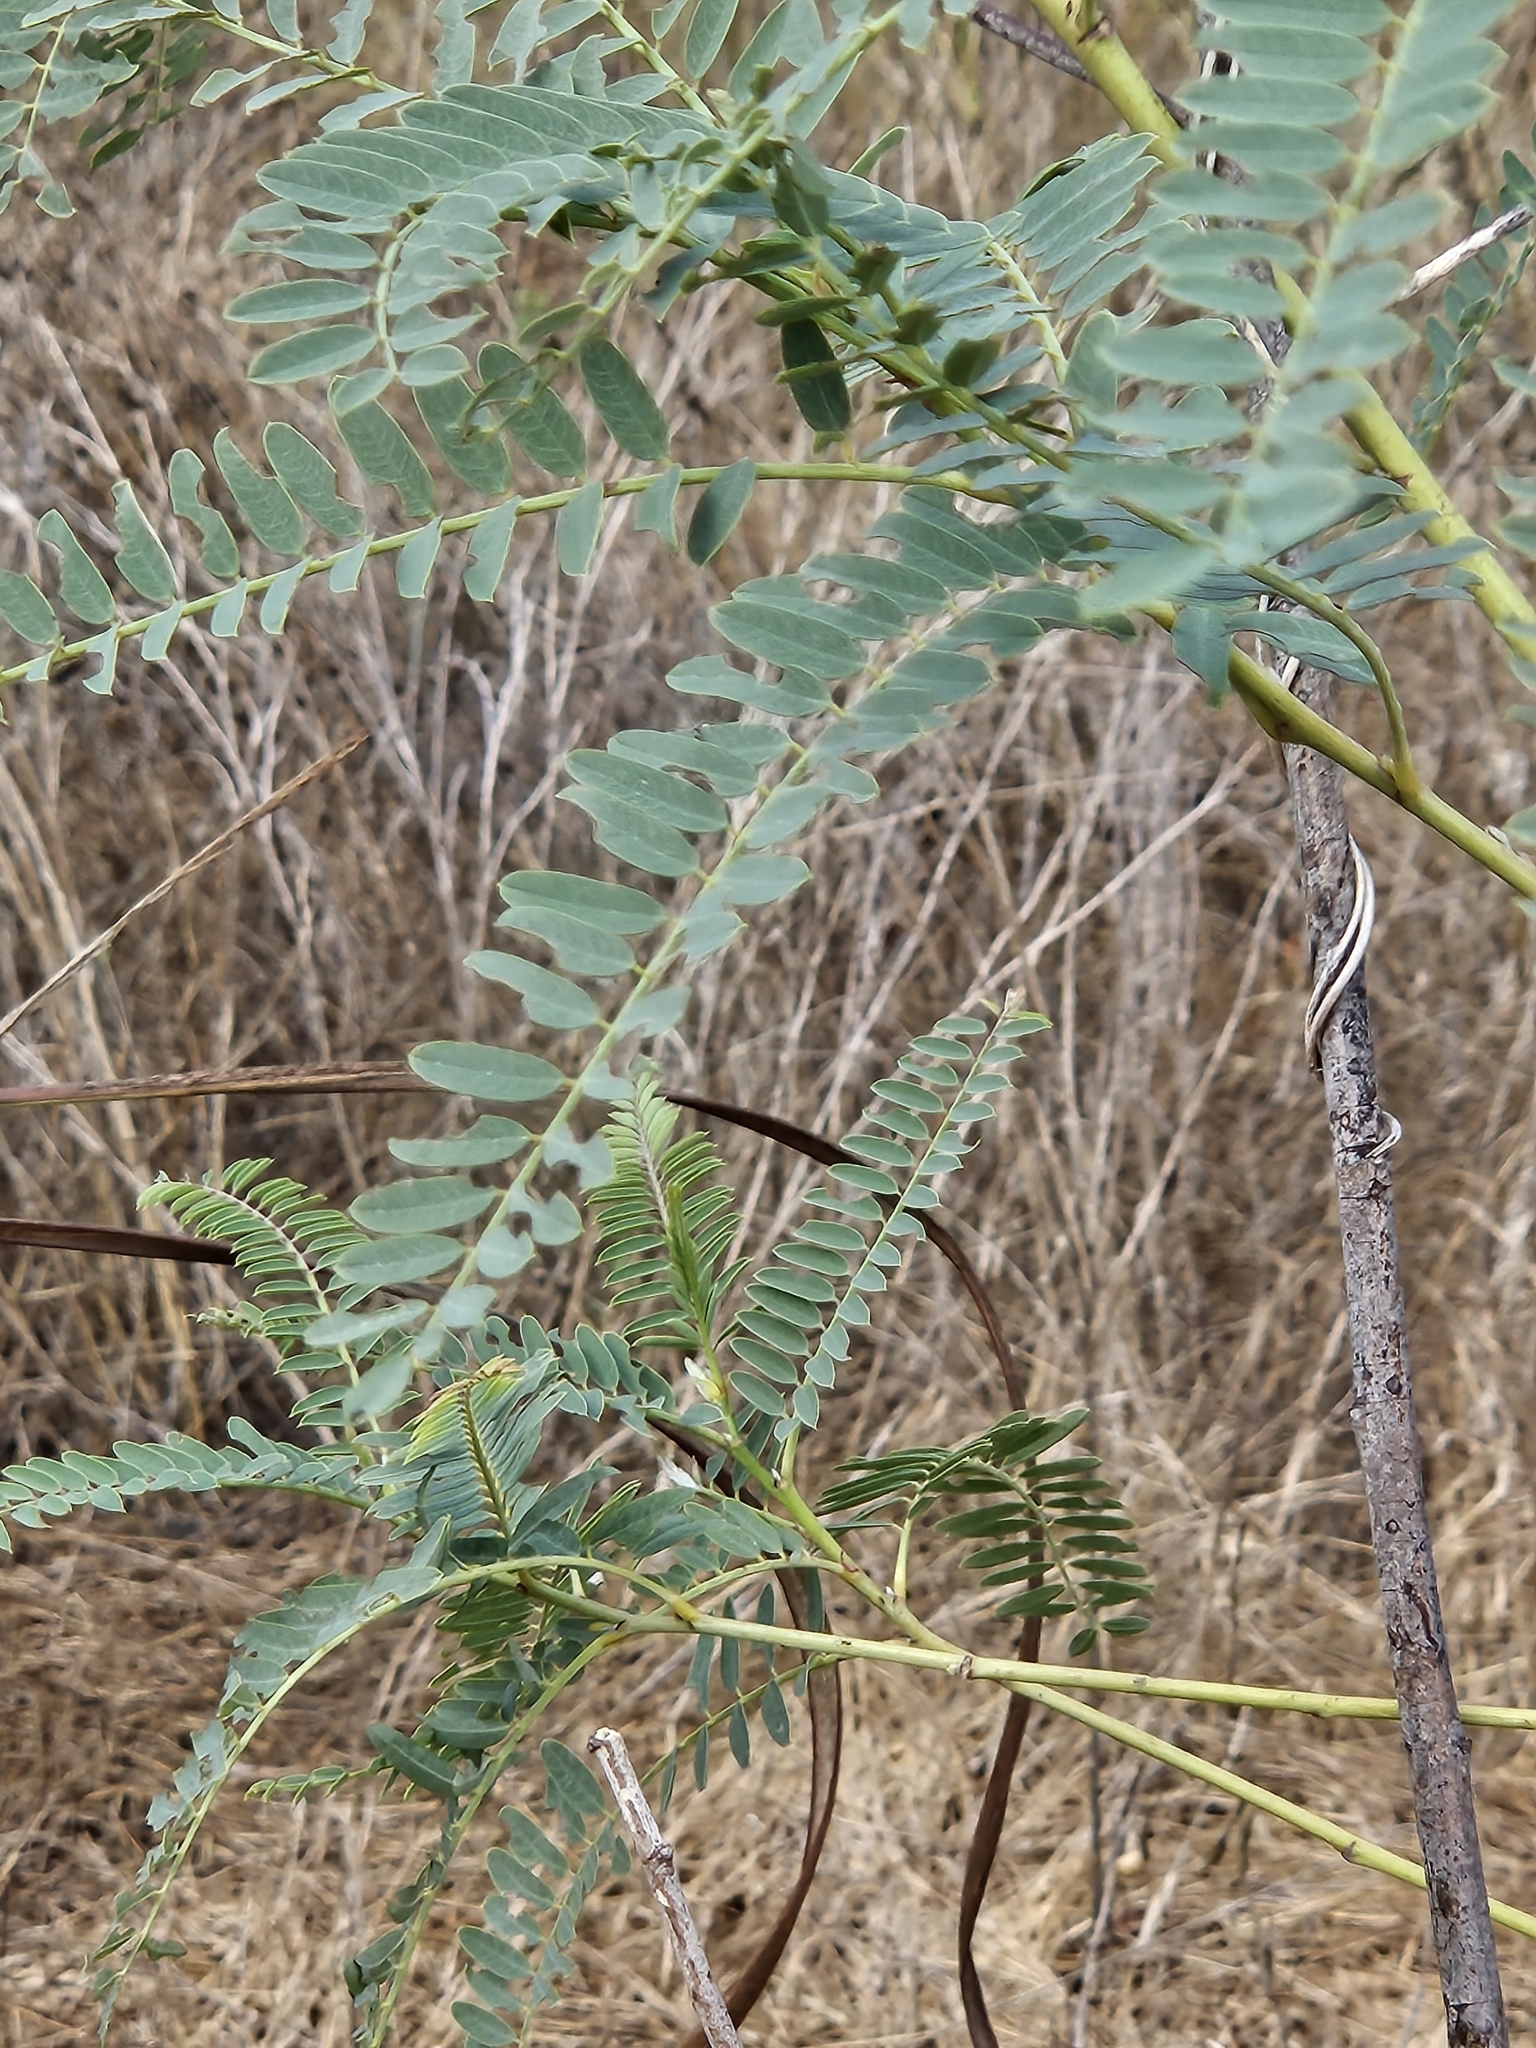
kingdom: Plantae
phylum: Tracheophyta
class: Magnoliopsida
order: Fabales
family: Fabaceae
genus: Sesbania
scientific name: Sesbania drummondii
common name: Poison-bean
